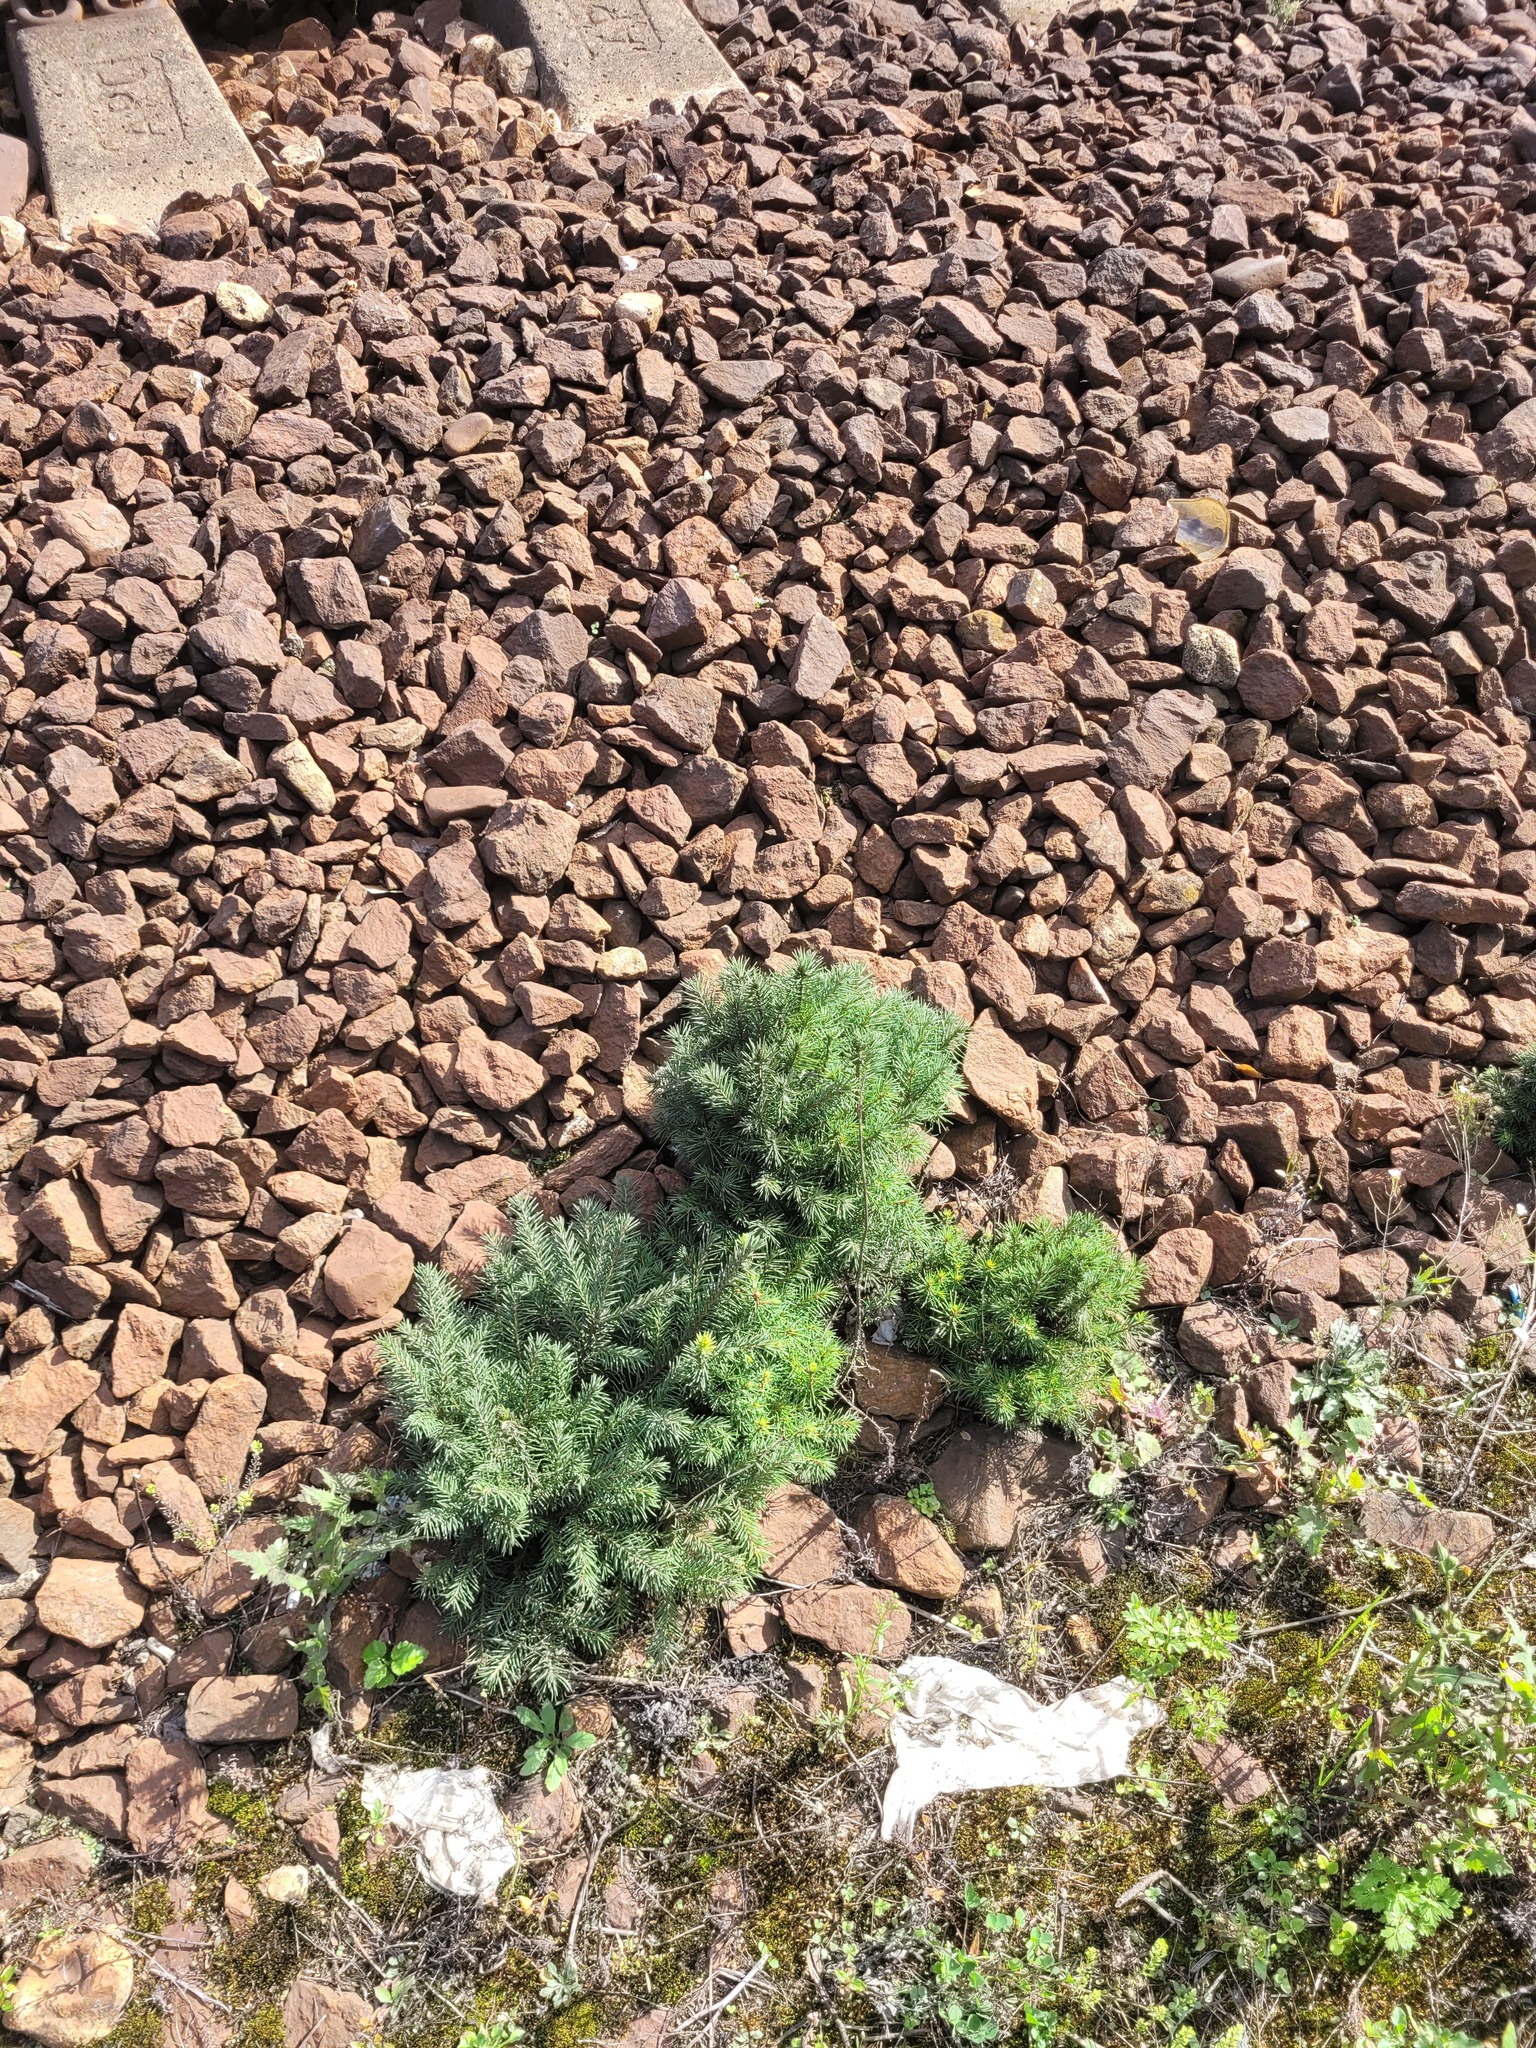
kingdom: Plantae
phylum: Tracheophyta
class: Pinopsida
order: Pinales
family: Pinaceae
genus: Picea
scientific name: Picea abies
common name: Norway spruce
